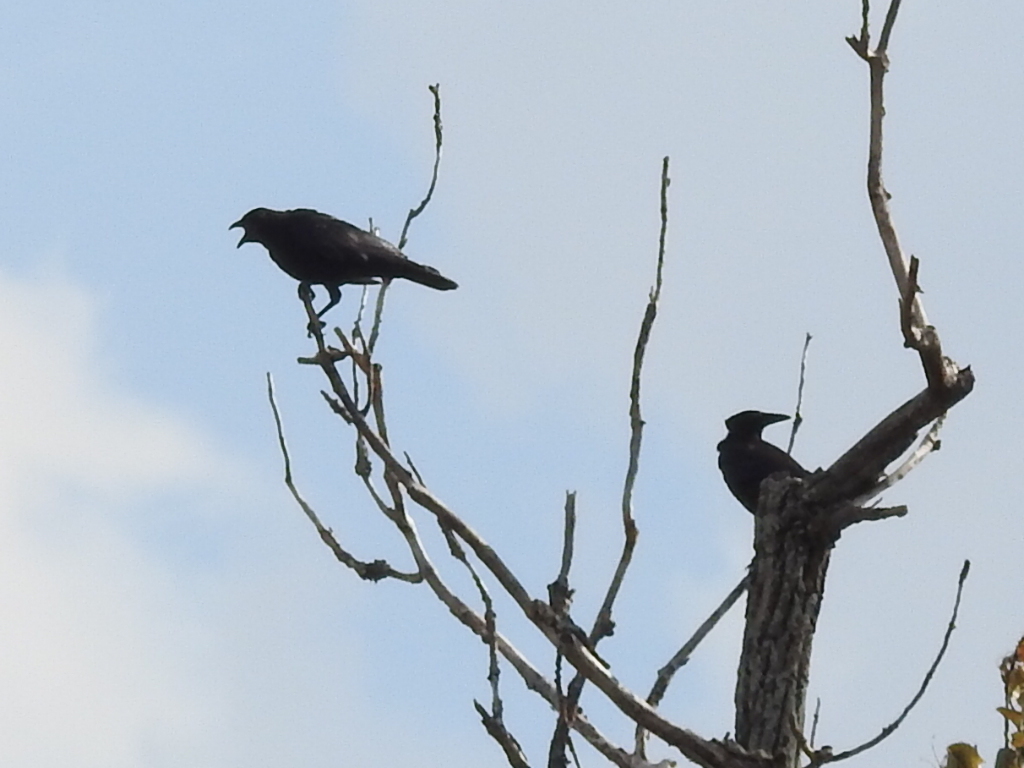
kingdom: Animalia
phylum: Chordata
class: Aves
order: Passeriformes
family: Corvidae
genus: Corvus
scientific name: Corvus brachyrhynchos
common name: American crow
